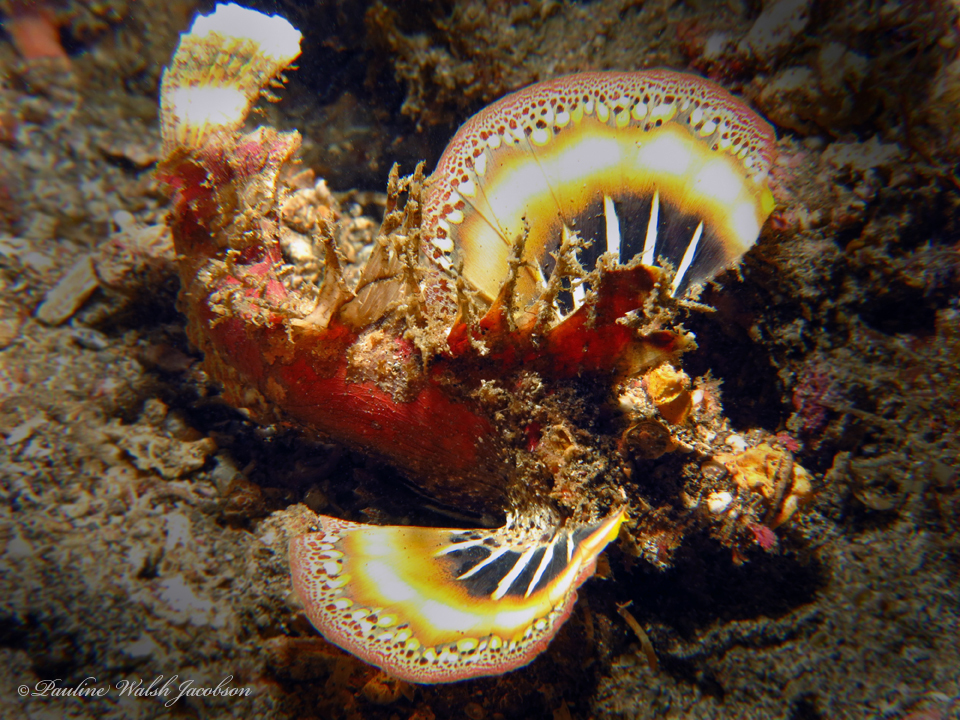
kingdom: Animalia
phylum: Chordata
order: Scorpaeniformes
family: Synanceiidae
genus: Inimicus
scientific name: Inimicus didactylus
